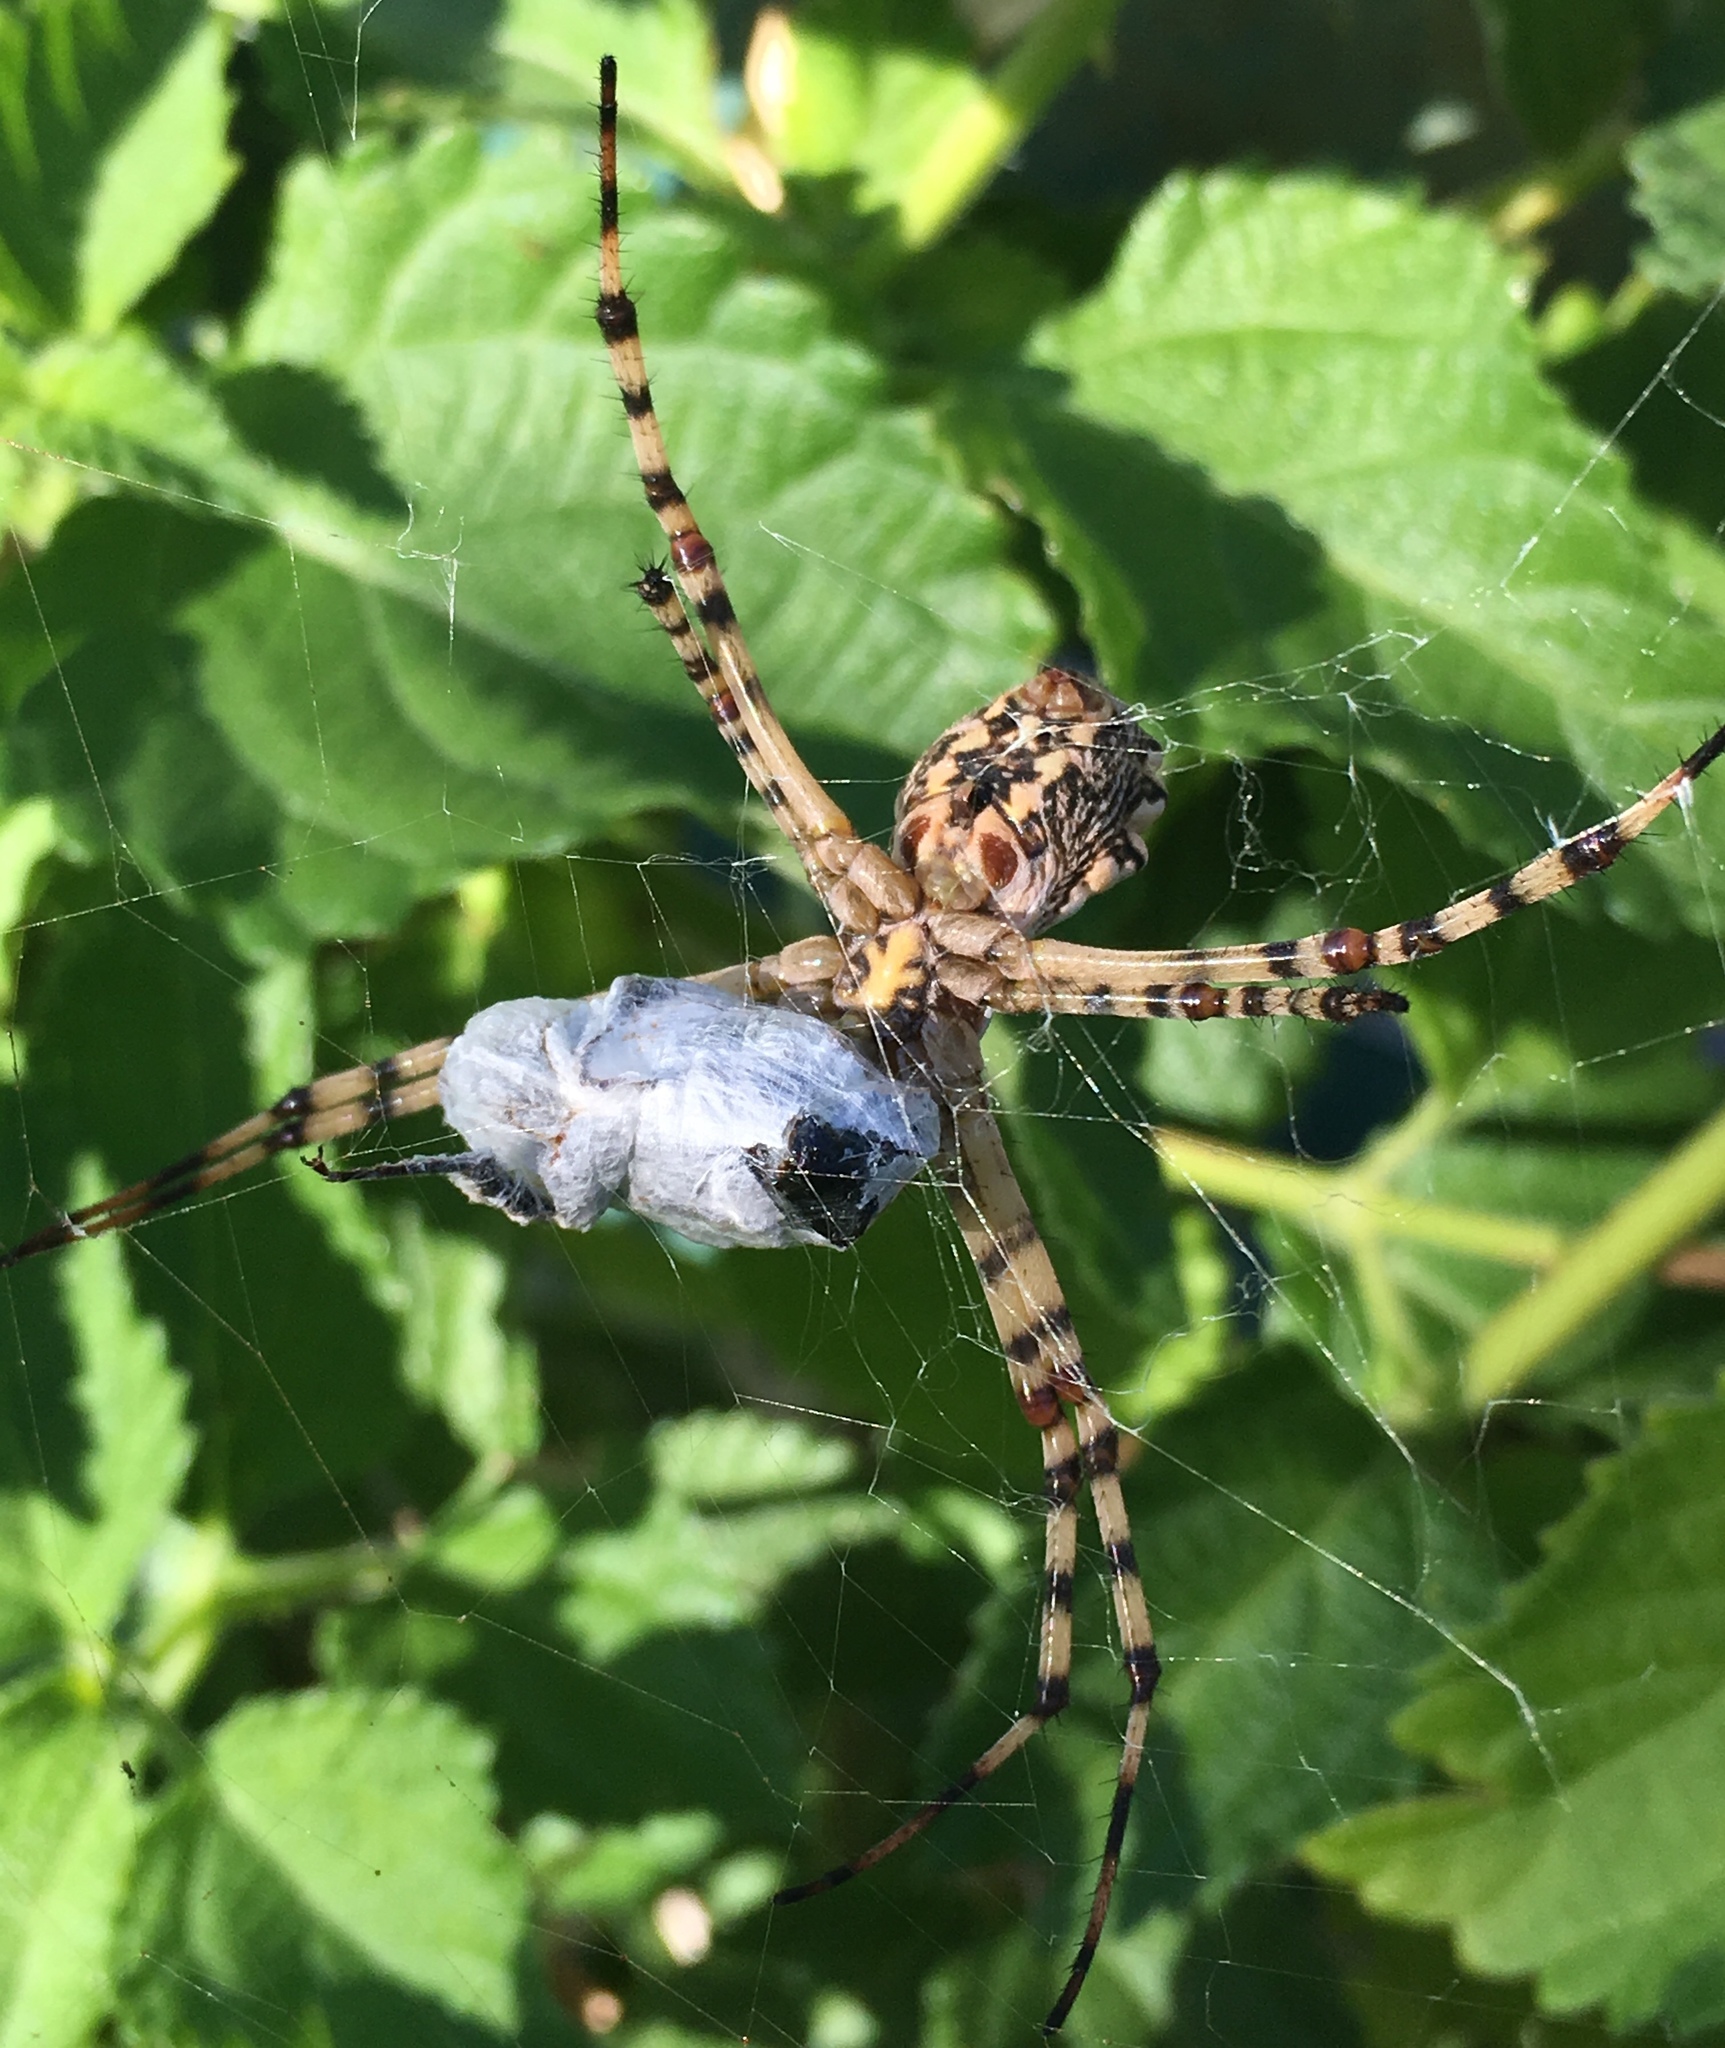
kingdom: Animalia
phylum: Arthropoda
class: Arachnida
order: Araneae
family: Araneidae
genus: Argiope
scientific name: Argiope lobata
